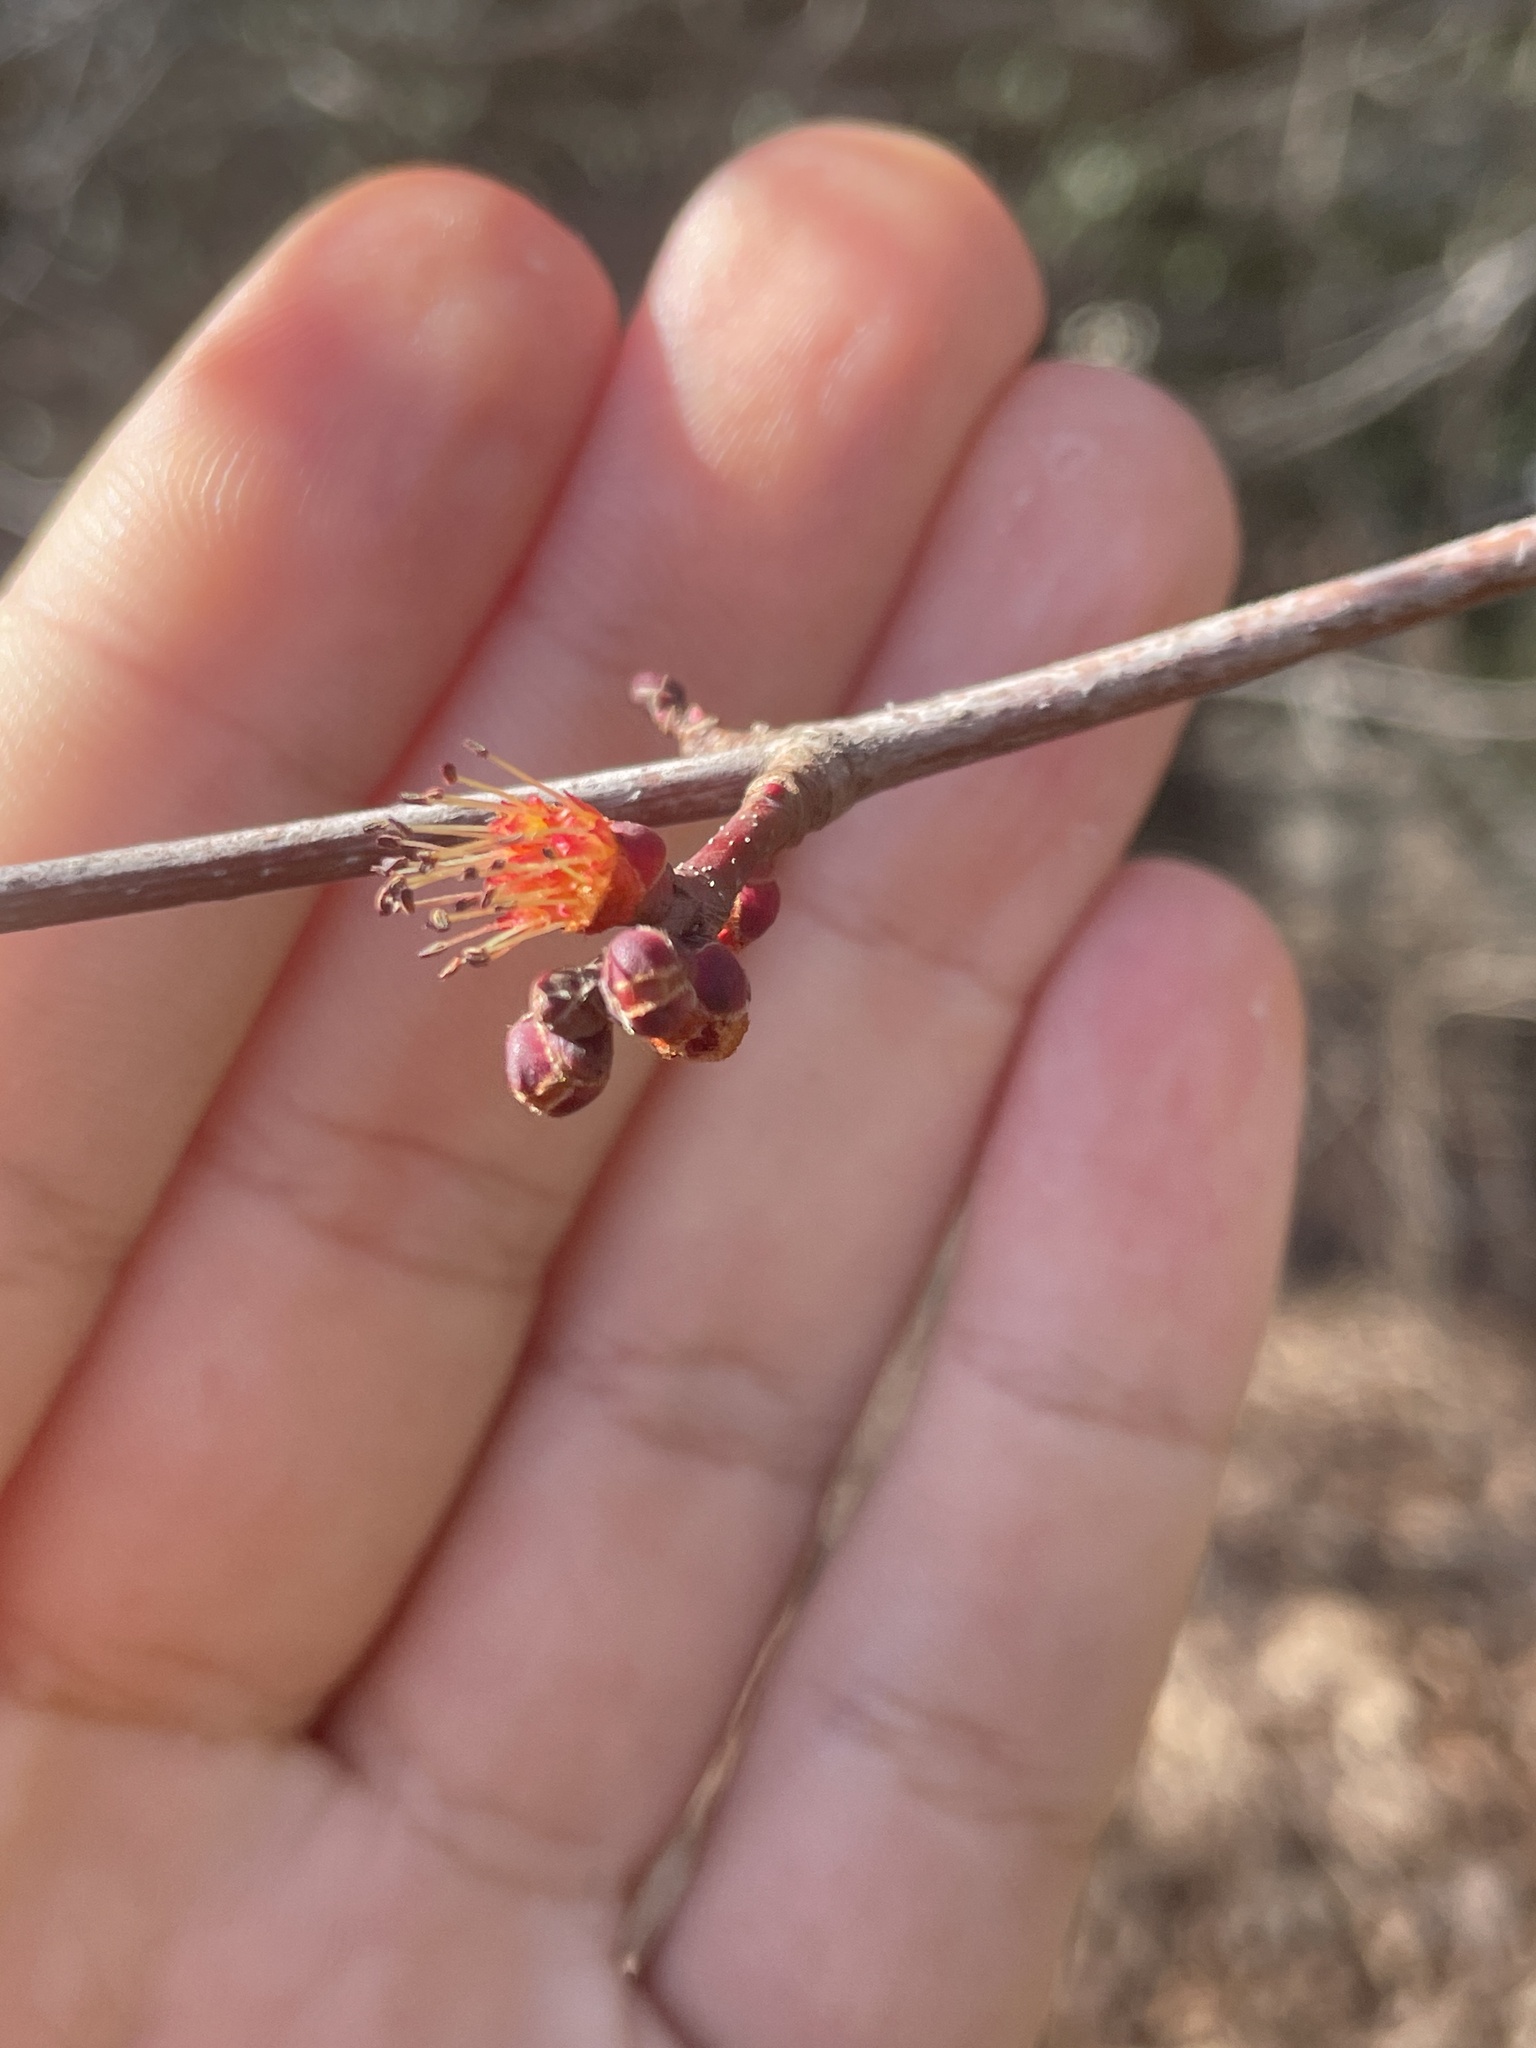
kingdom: Plantae
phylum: Tracheophyta
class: Magnoliopsida
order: Sapindales
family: Sapindaceae
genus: Acer
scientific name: Acer rubrum
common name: Red maple
